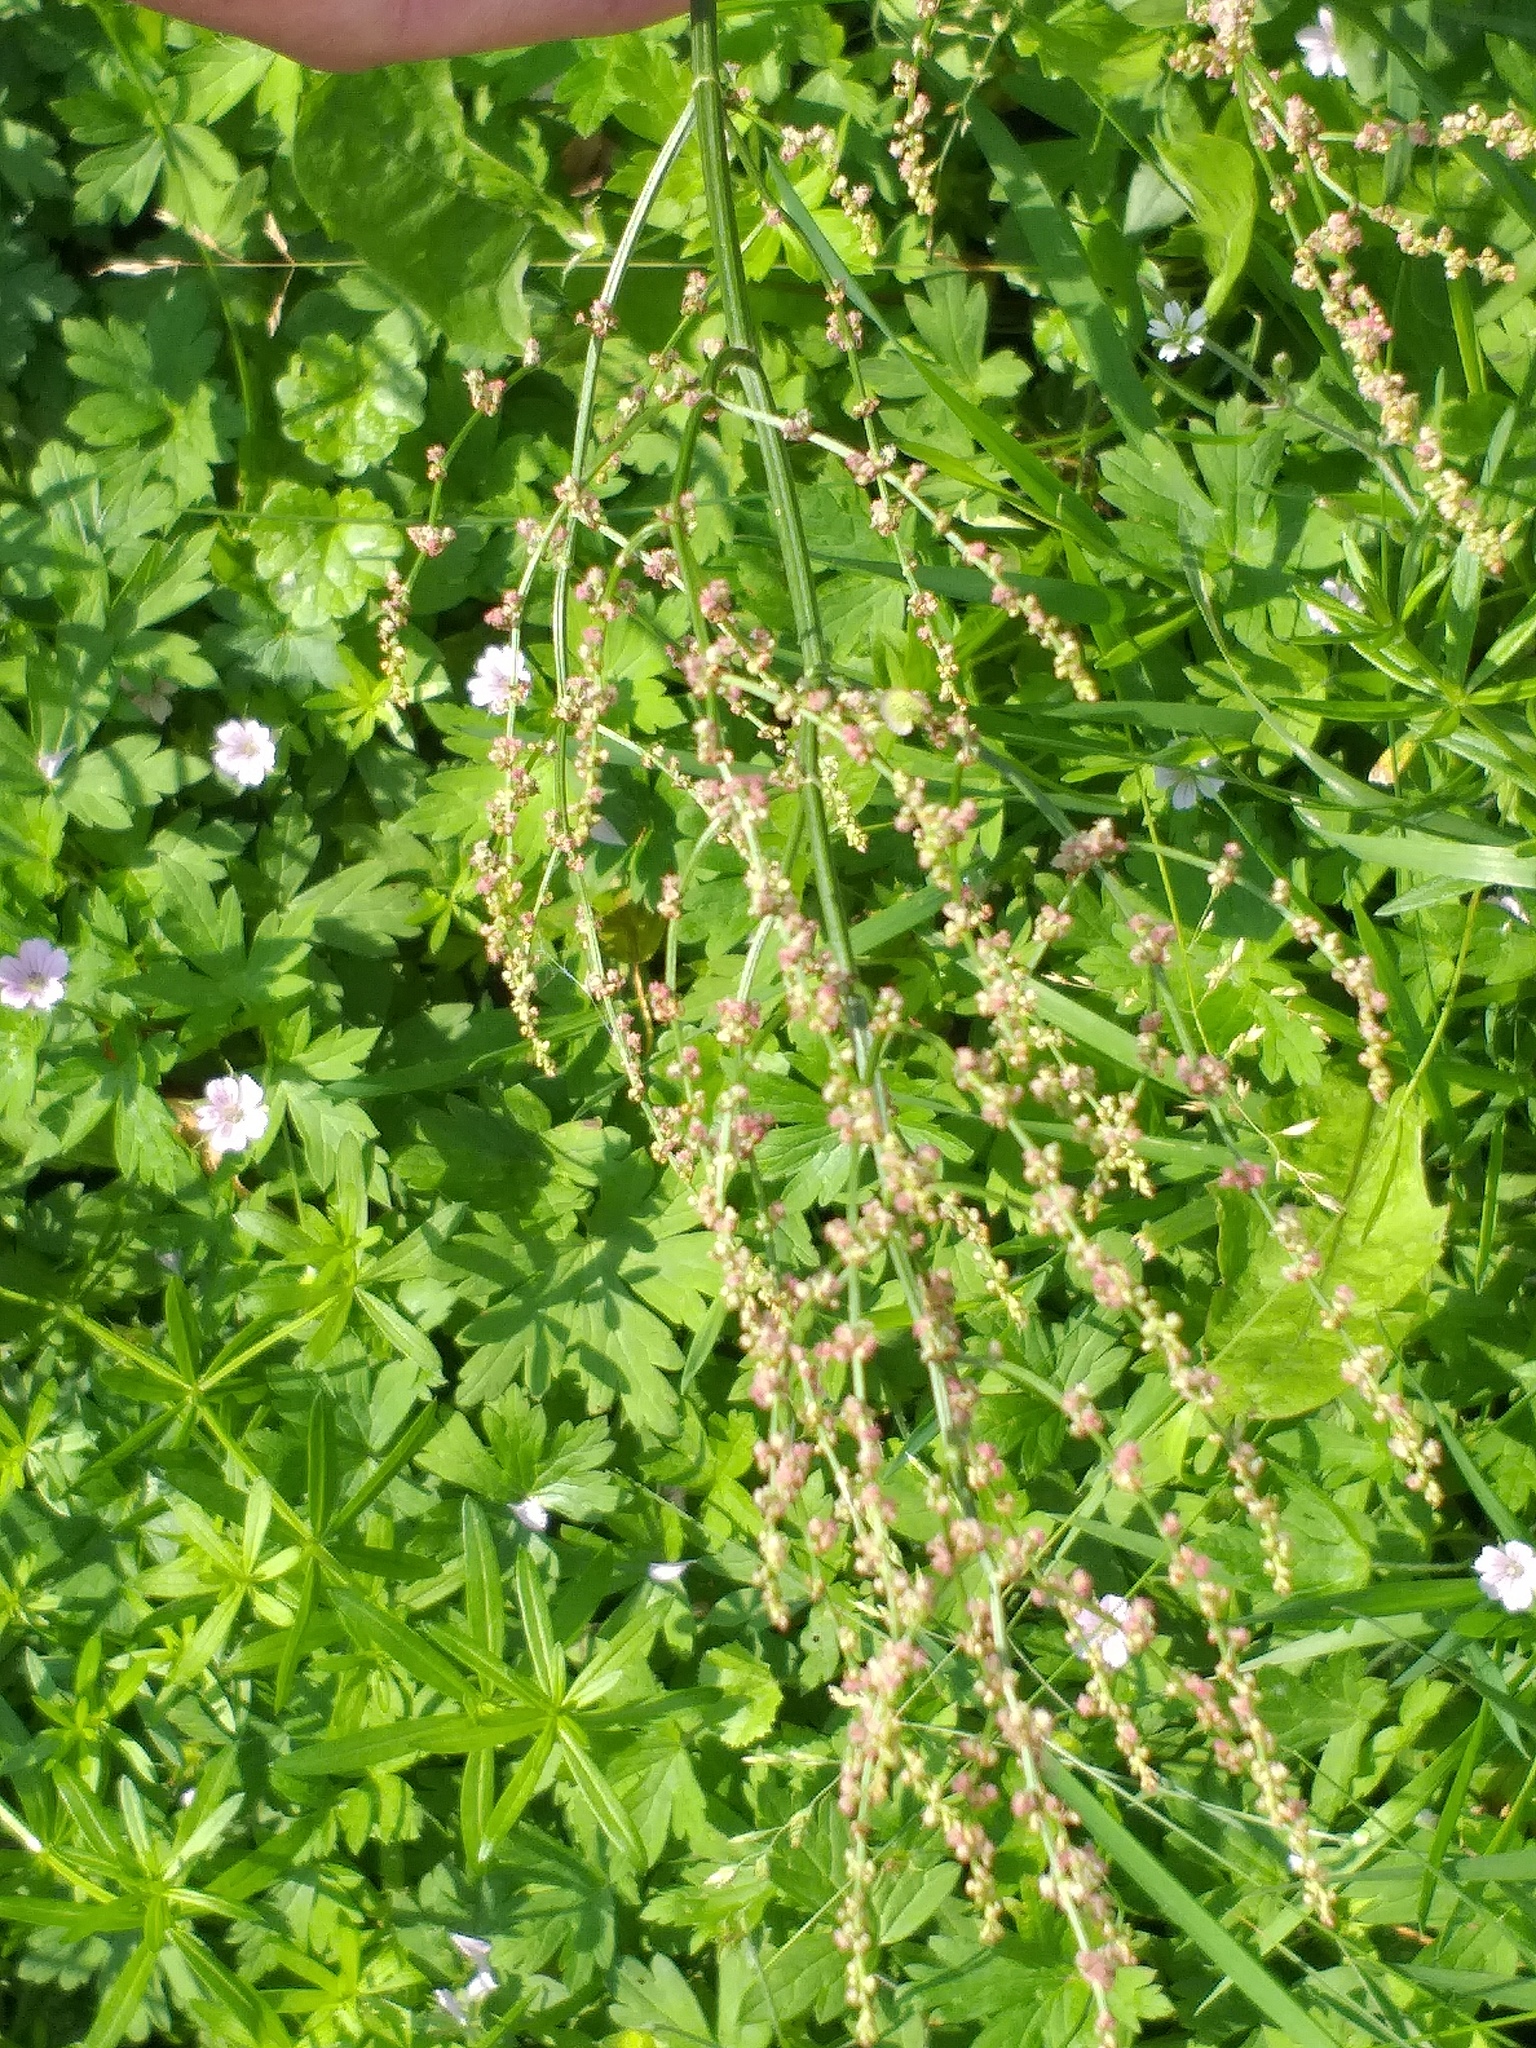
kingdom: Plantae
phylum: Tracheophyta
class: Magnoliopsida
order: Caryophyllales
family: Polygonaceae
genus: Rumex
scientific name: Rumex acetosa
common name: Garden sorrel
